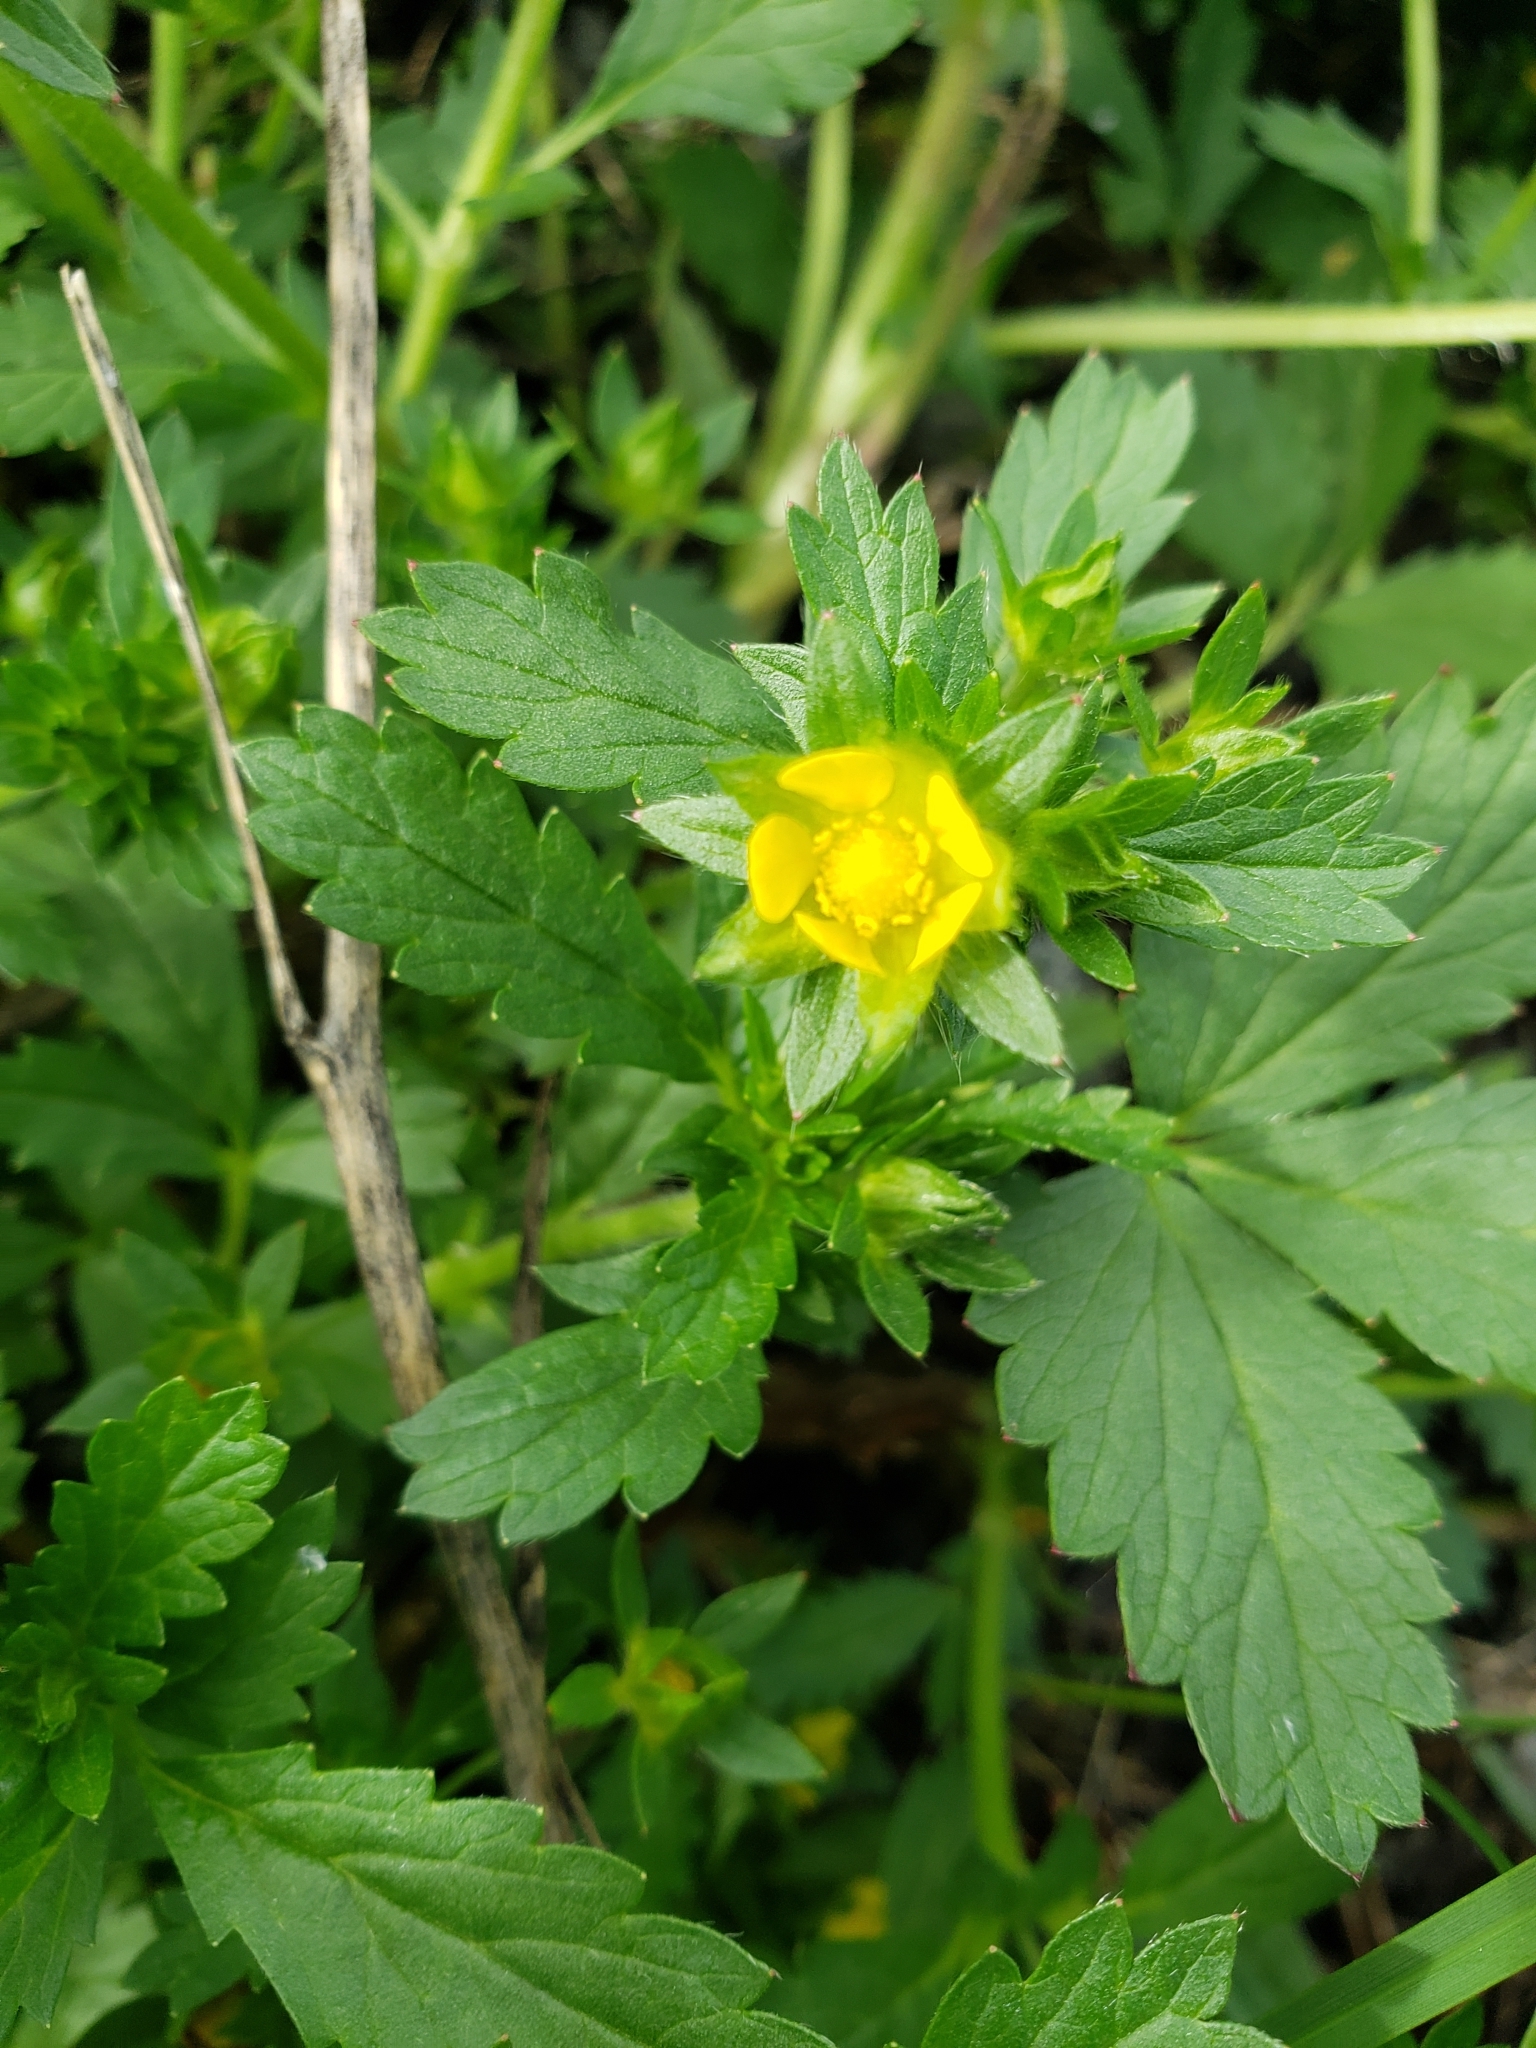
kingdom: Plantae
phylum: Tracheophyta
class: Magnoliopsida
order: Rosales
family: Rosaceae
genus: Potentilla
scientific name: Potentilla norvegica
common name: Ternate-leaved cinquefoil
